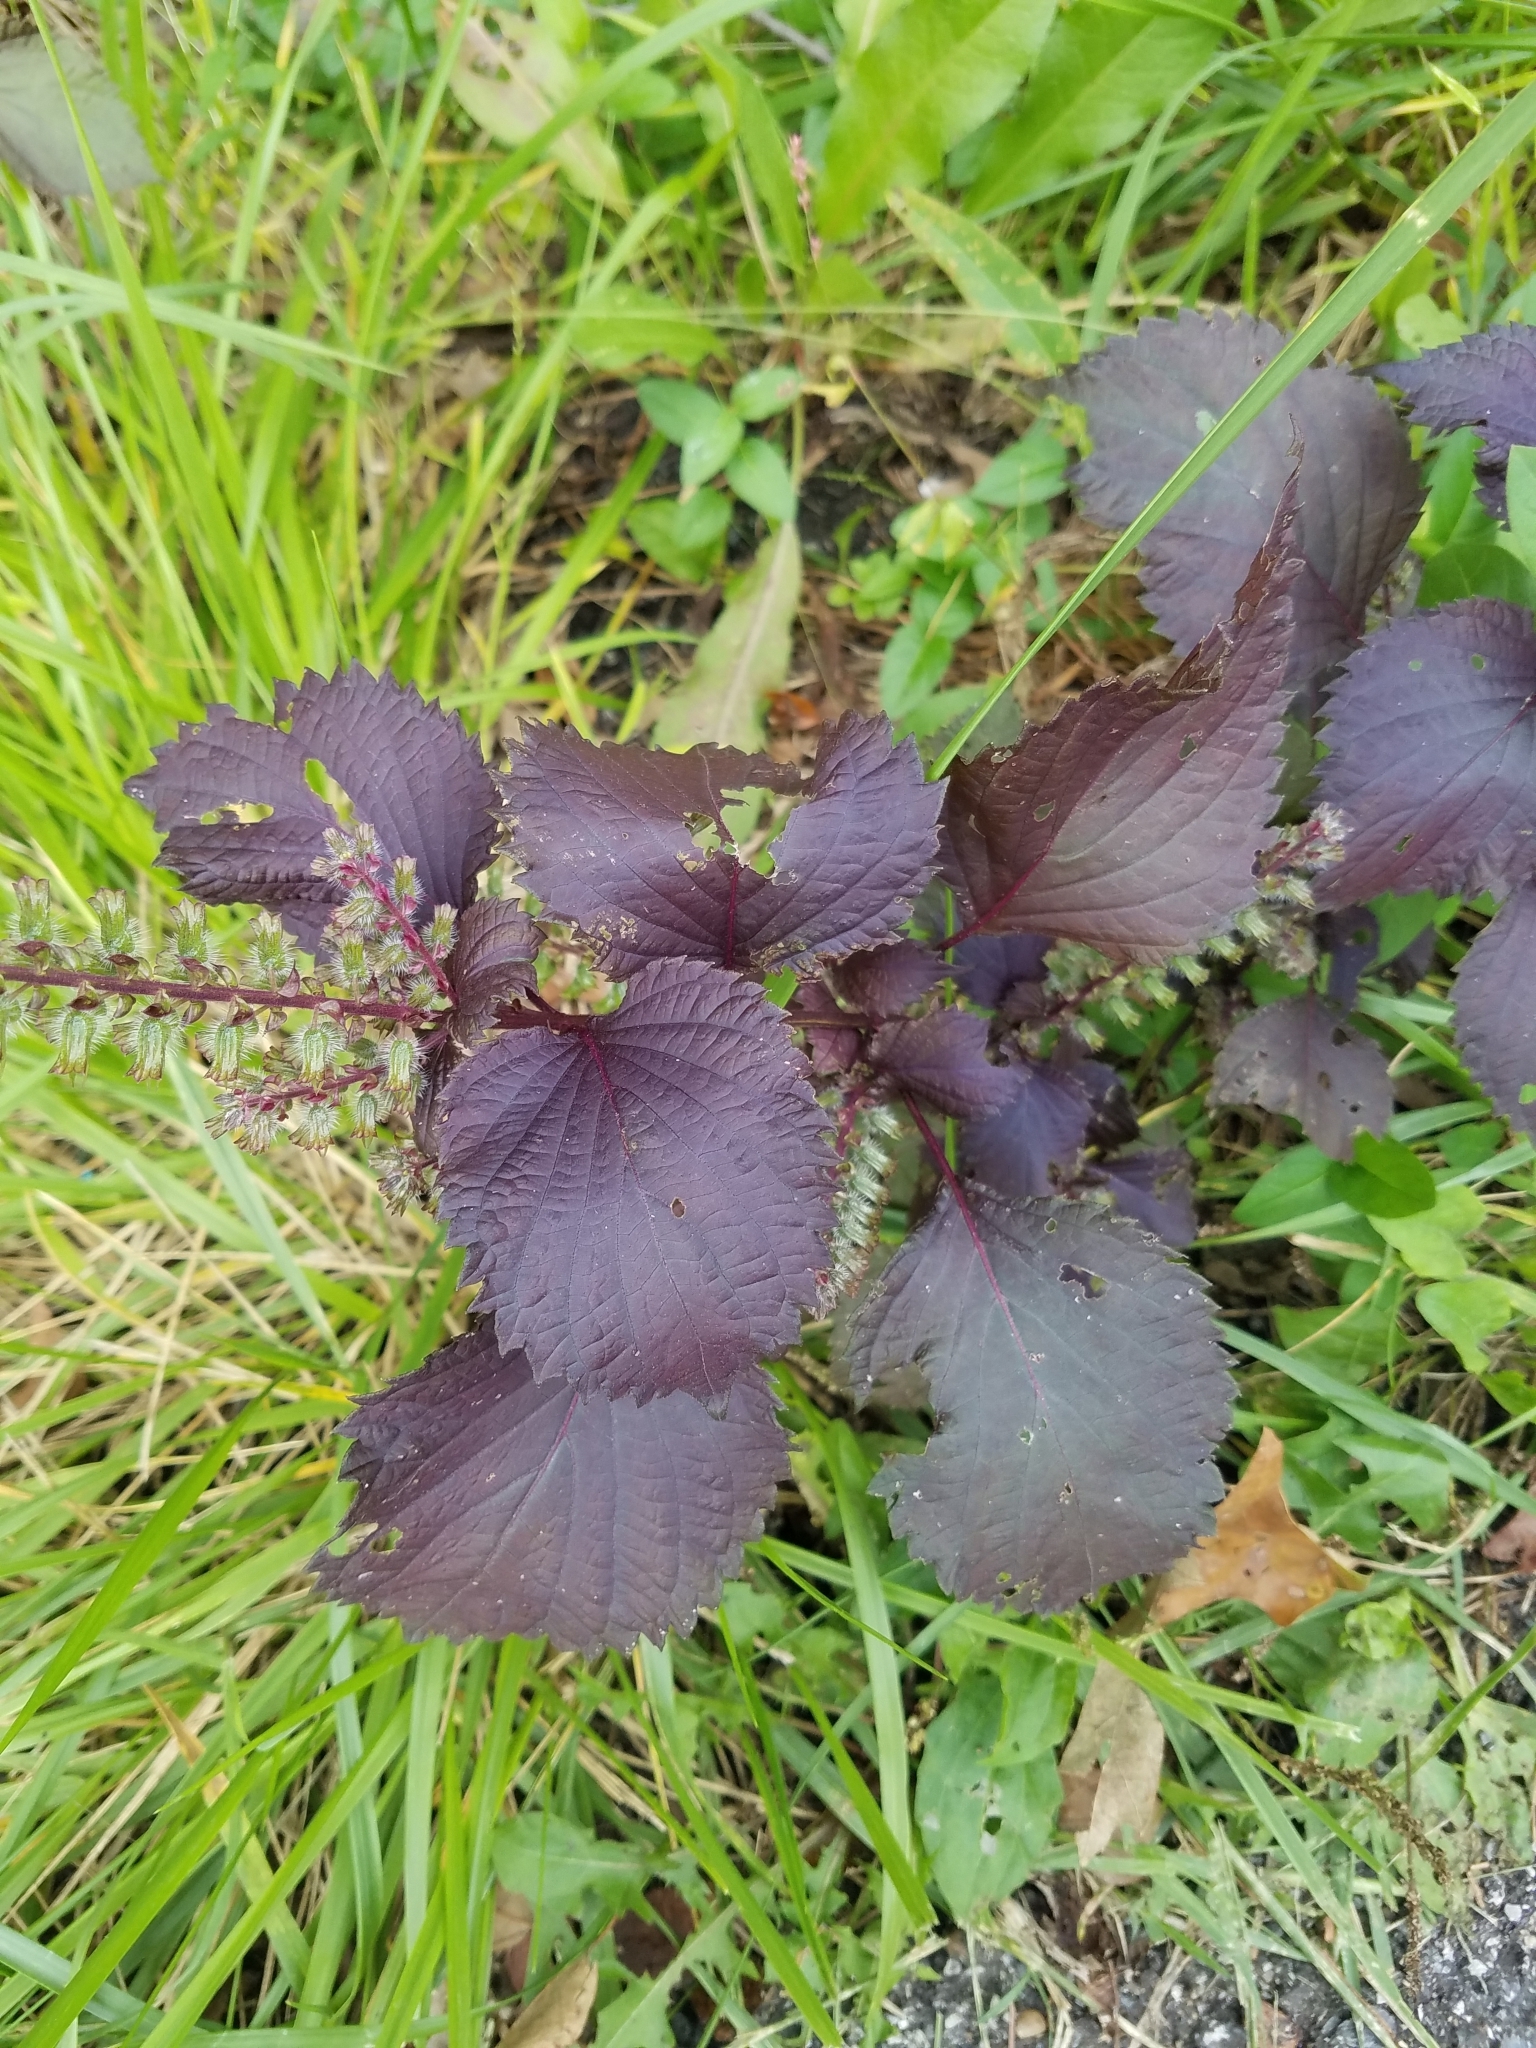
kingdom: Plantae
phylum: Tracheophyta
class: Magnoliopsida
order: Lamiales
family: Lamiaceae
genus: Perilla
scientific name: Perilla frutescens
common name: Perilla
